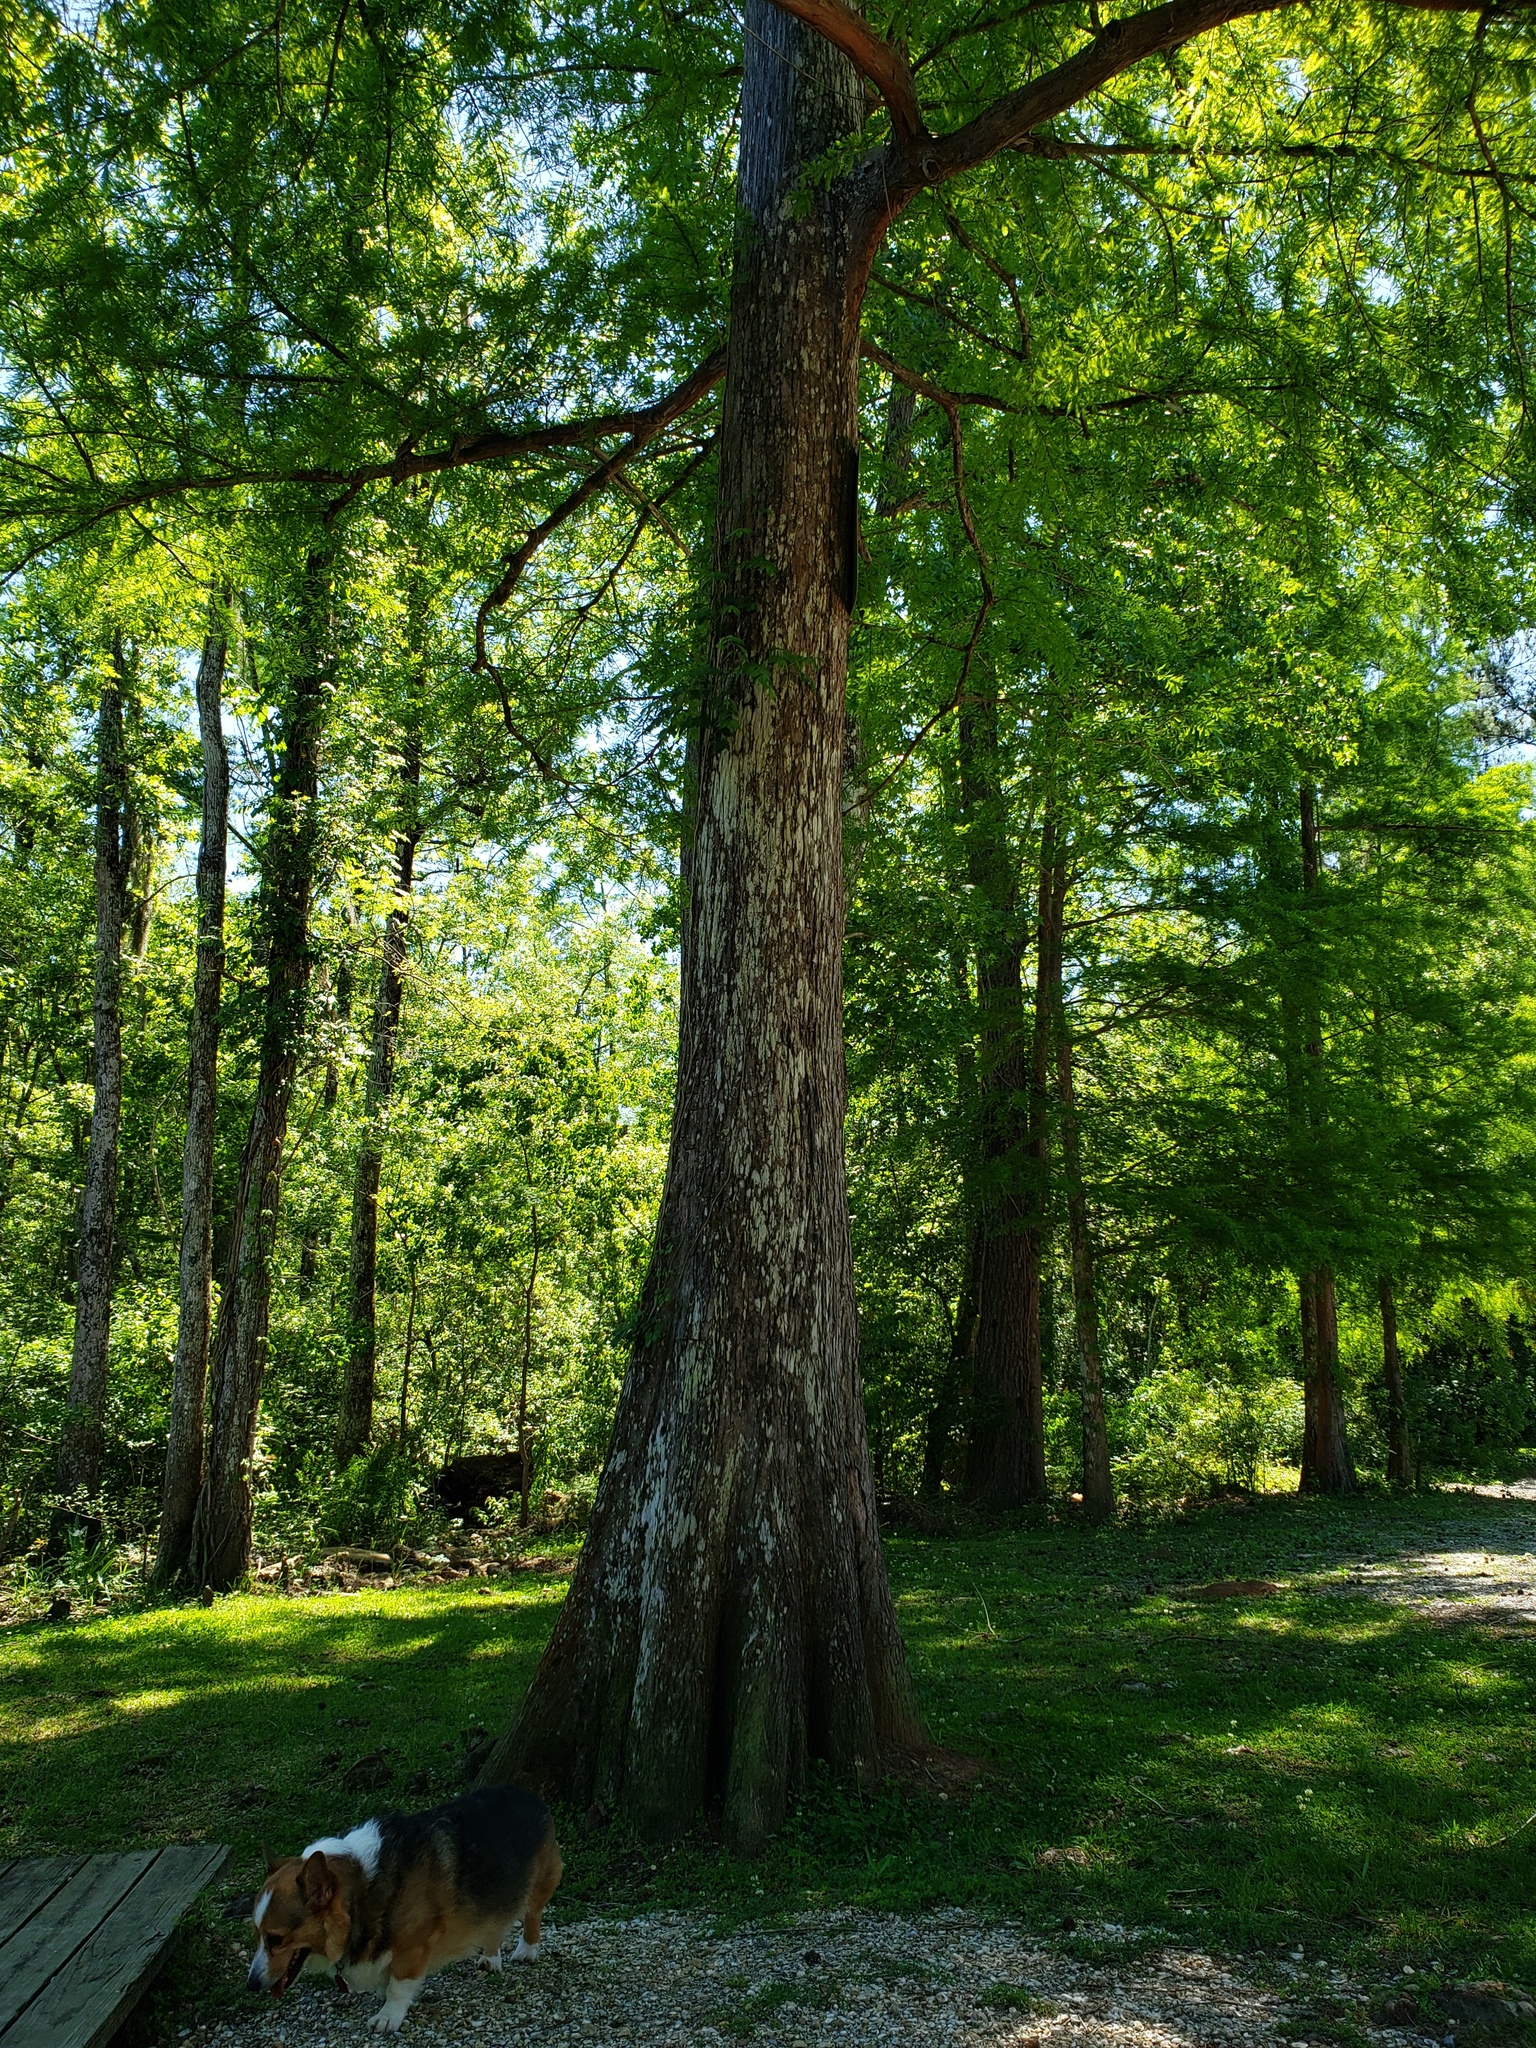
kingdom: Plantae
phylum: Tracheophyta
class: Pinopsida
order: Pinales
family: Cupressaceae
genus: Taxodium
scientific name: Taxodium distichum
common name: Bald cypress
